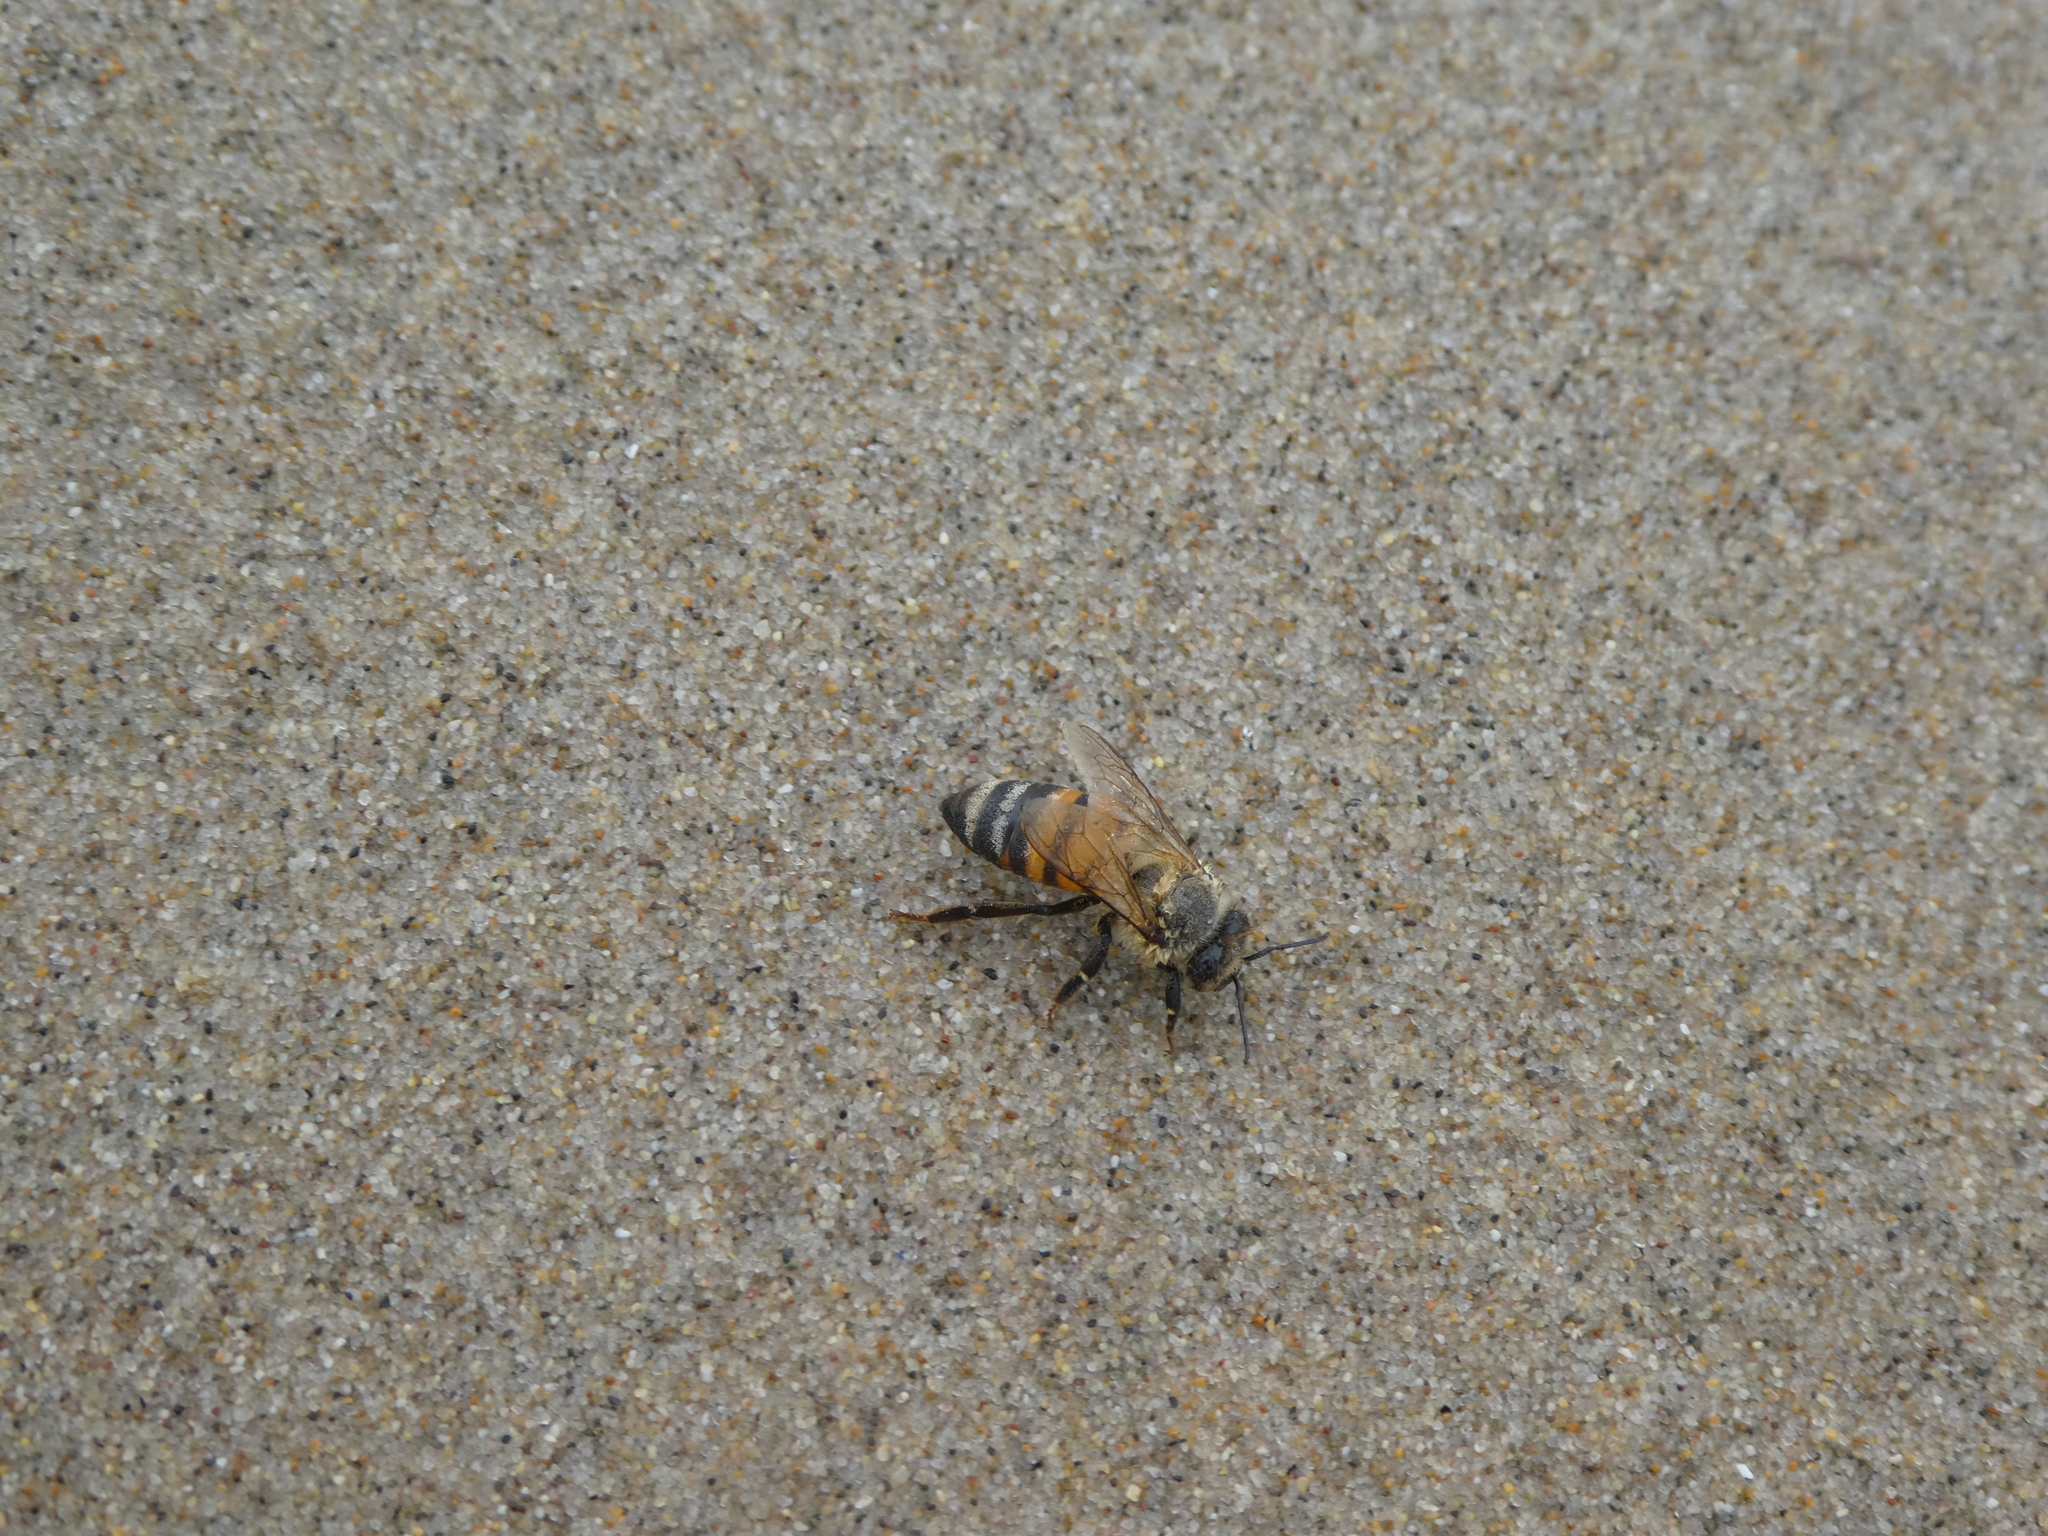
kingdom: Animalia
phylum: Arthropoda
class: Insecta
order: Hymenoptera
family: Apidae
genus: Apis
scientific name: Apis mellifera
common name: Honey bee
